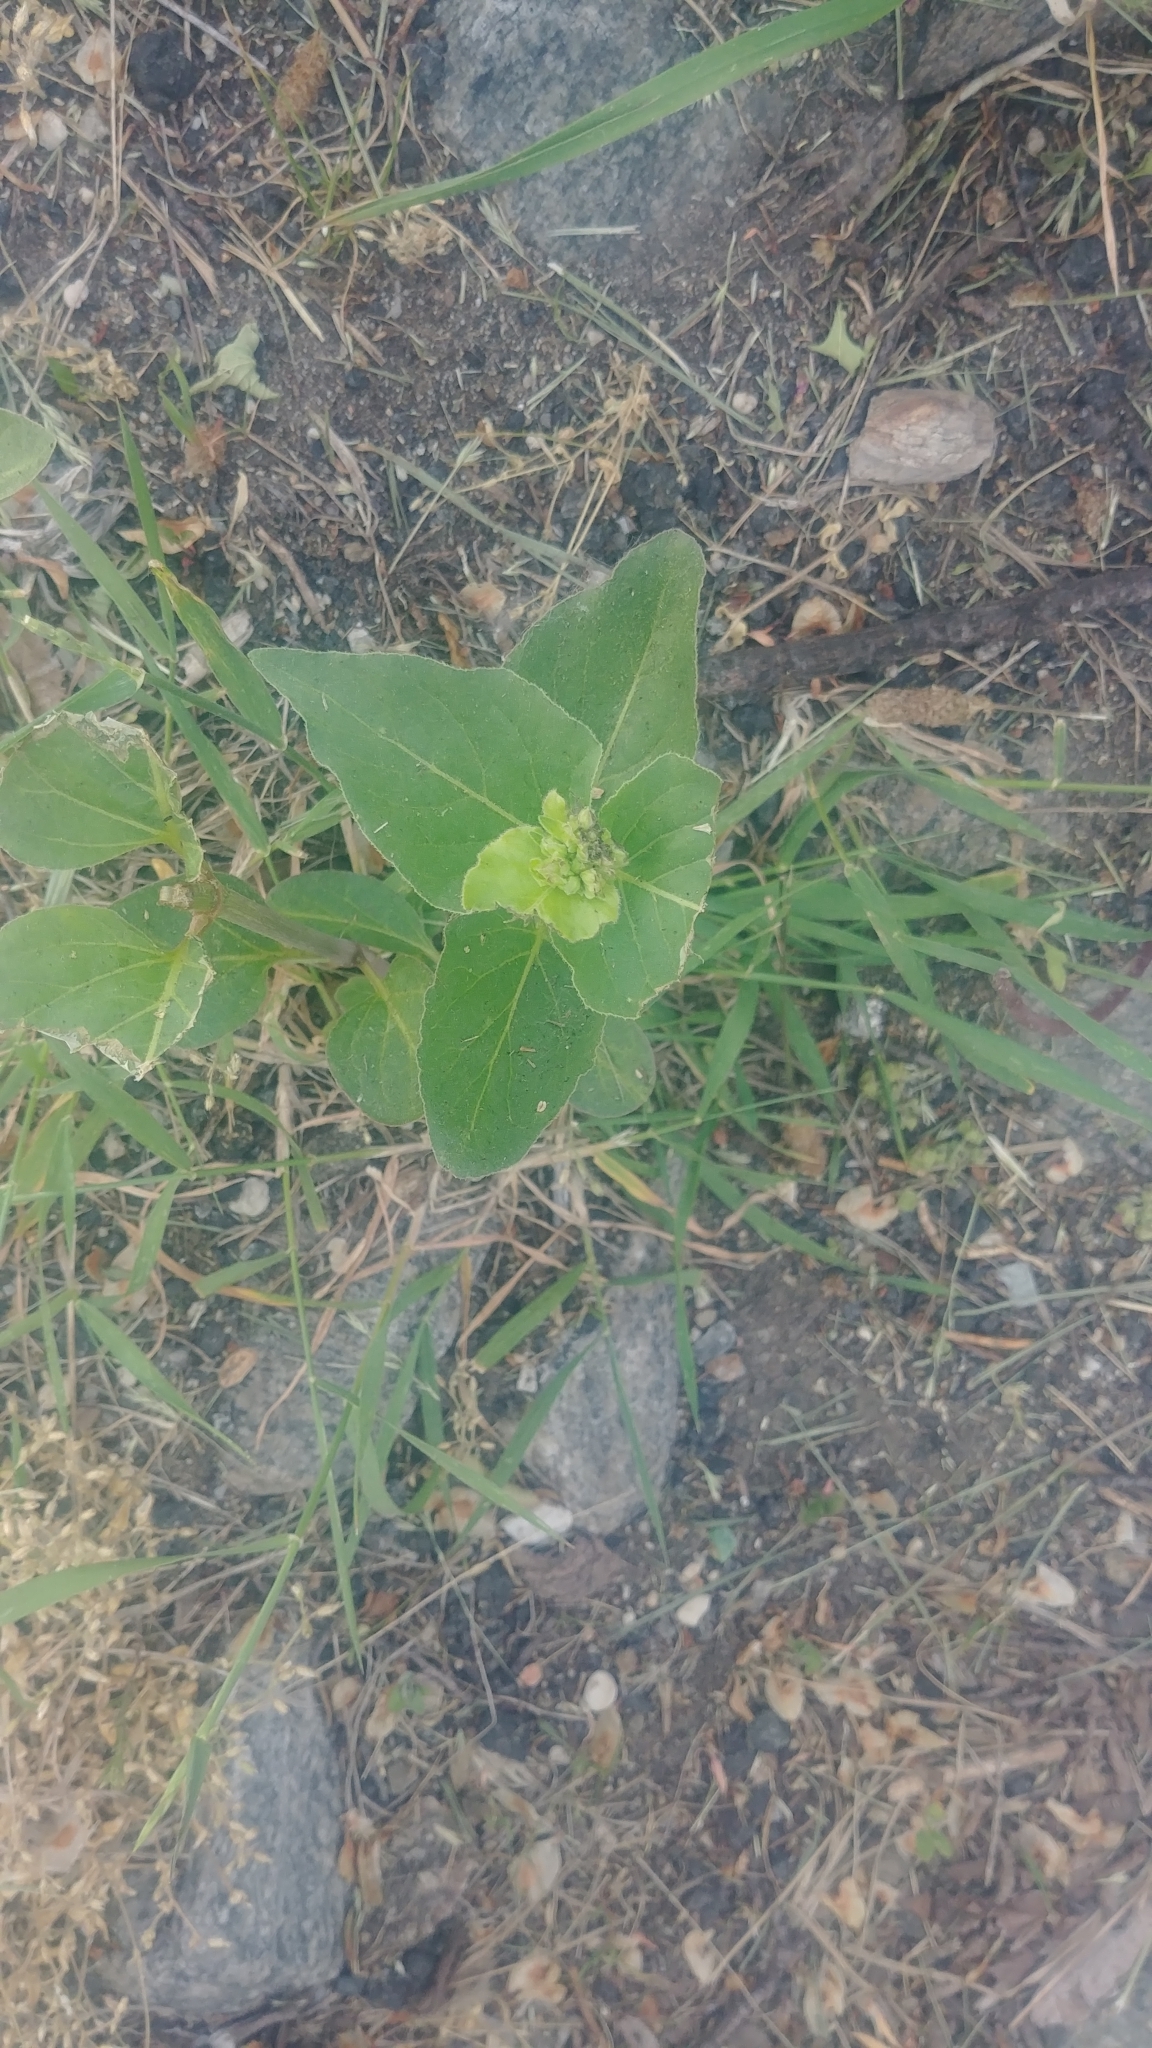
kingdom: Plantae
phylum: Tracheophyta
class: Magnoliopsida
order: Caryophyllales
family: Nyctaginaceae
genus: Mirabilis
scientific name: Mirabilis nyctaginea
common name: Umbrella wort
